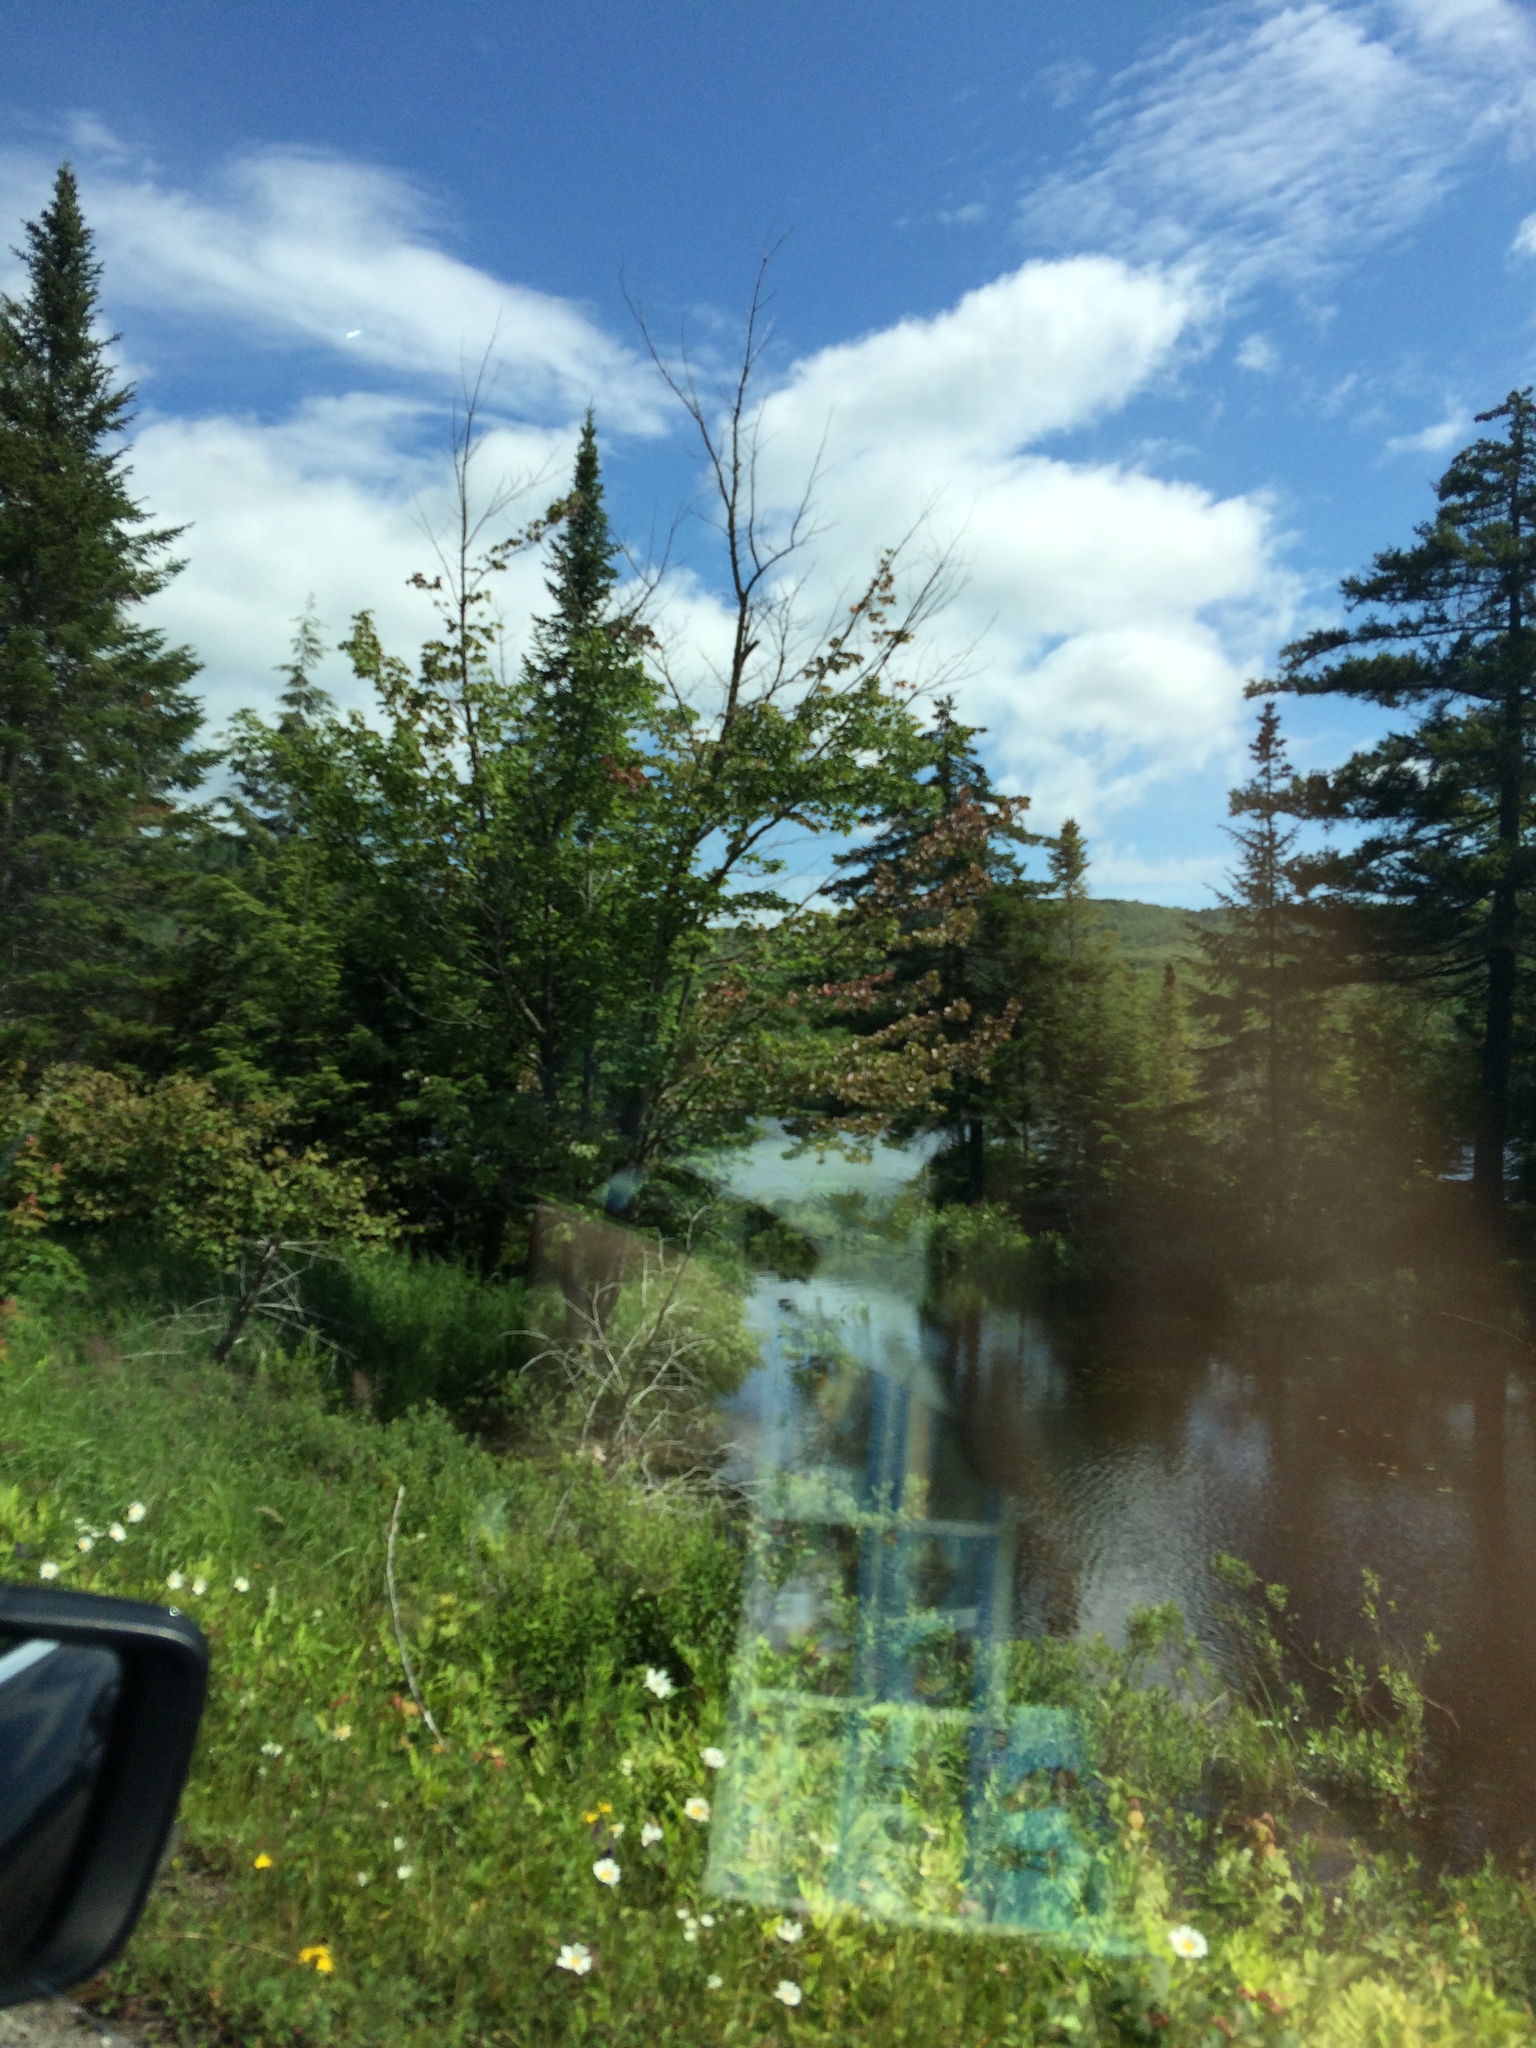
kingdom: Plantae
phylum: Tracheophyta
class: Magnoliopsida
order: Sapindales
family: Sapindaceae
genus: Acer
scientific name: Acer rubrum
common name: Red maple
